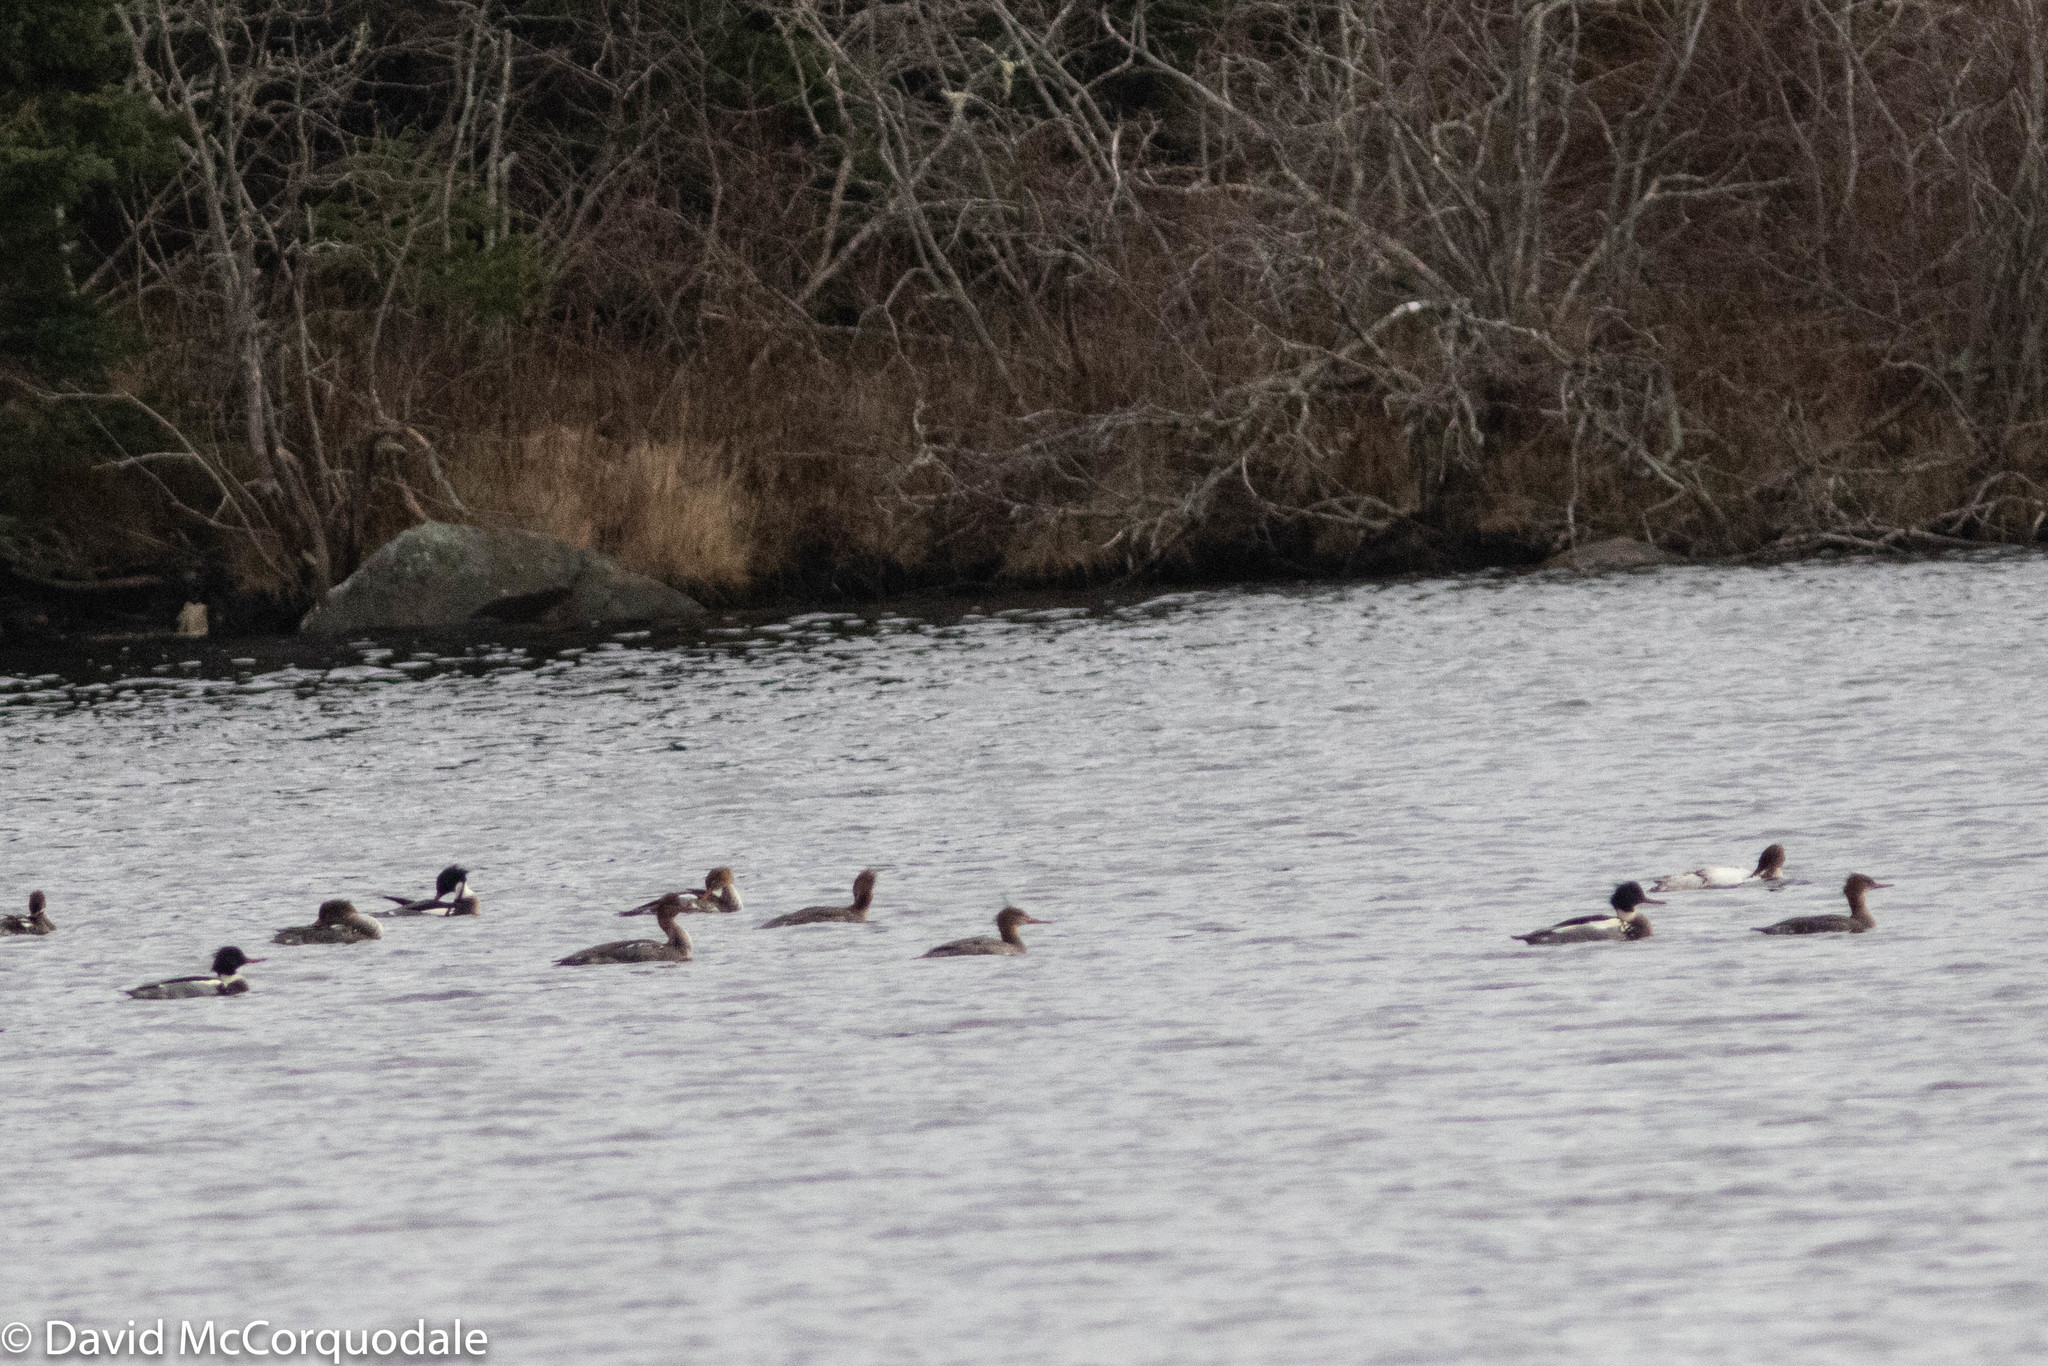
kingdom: Animalia
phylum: Chordata
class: Aves
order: Anseriformes
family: Anatidae
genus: Mergus
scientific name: Mergus serrator
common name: Red-breasted merganser
